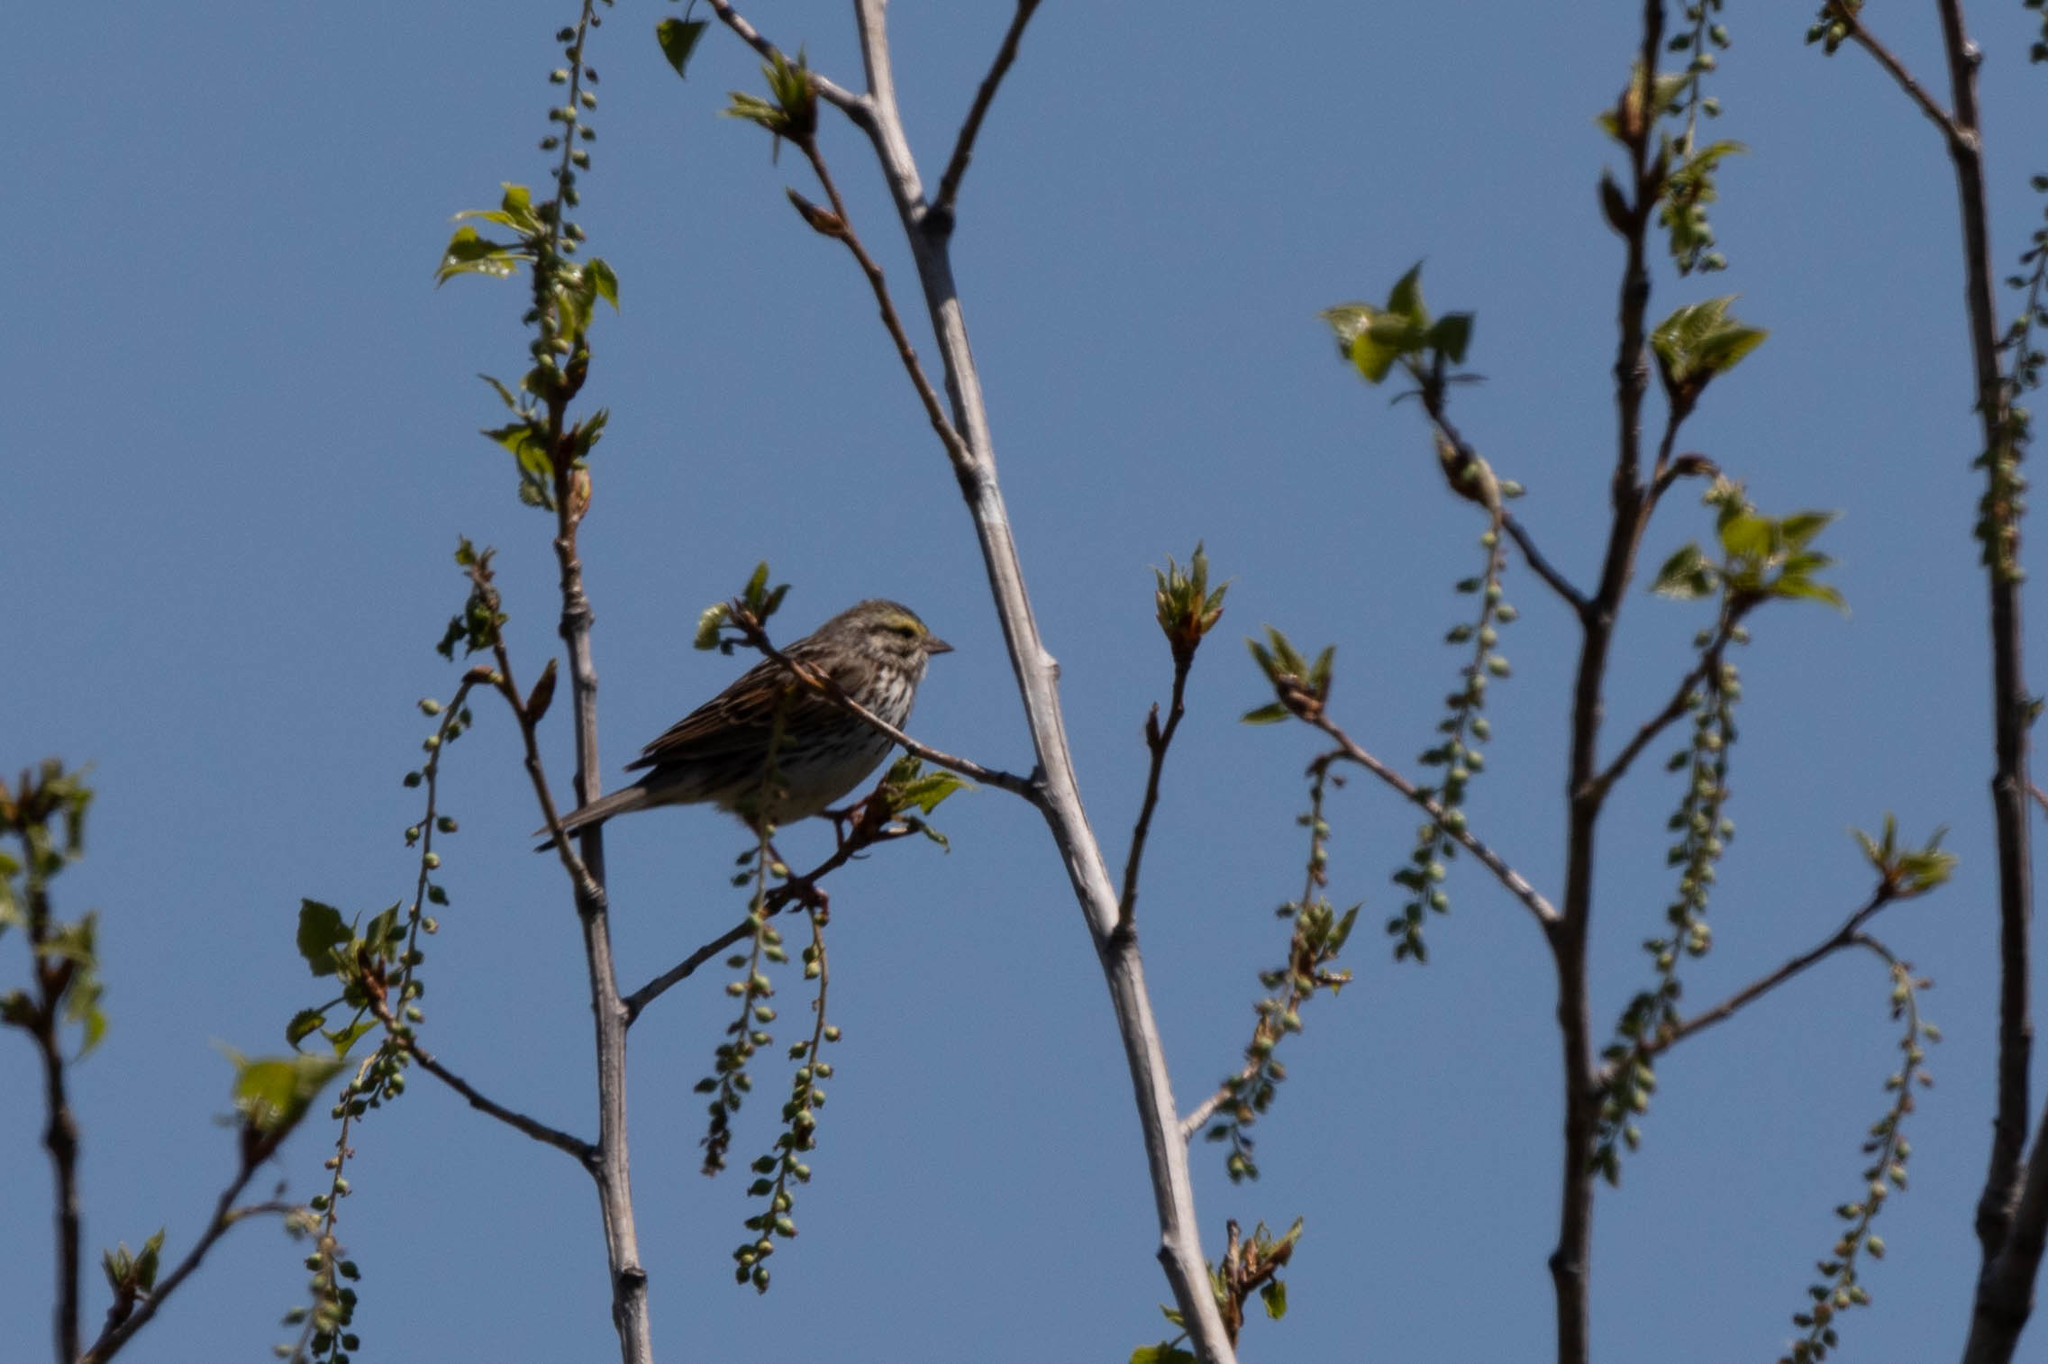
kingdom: Animalia
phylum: Chordata
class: Aves
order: Passeriformes
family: Passerellidae
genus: Passerculus
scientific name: Passerculus sandwichensis
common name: Savannah sparrow
